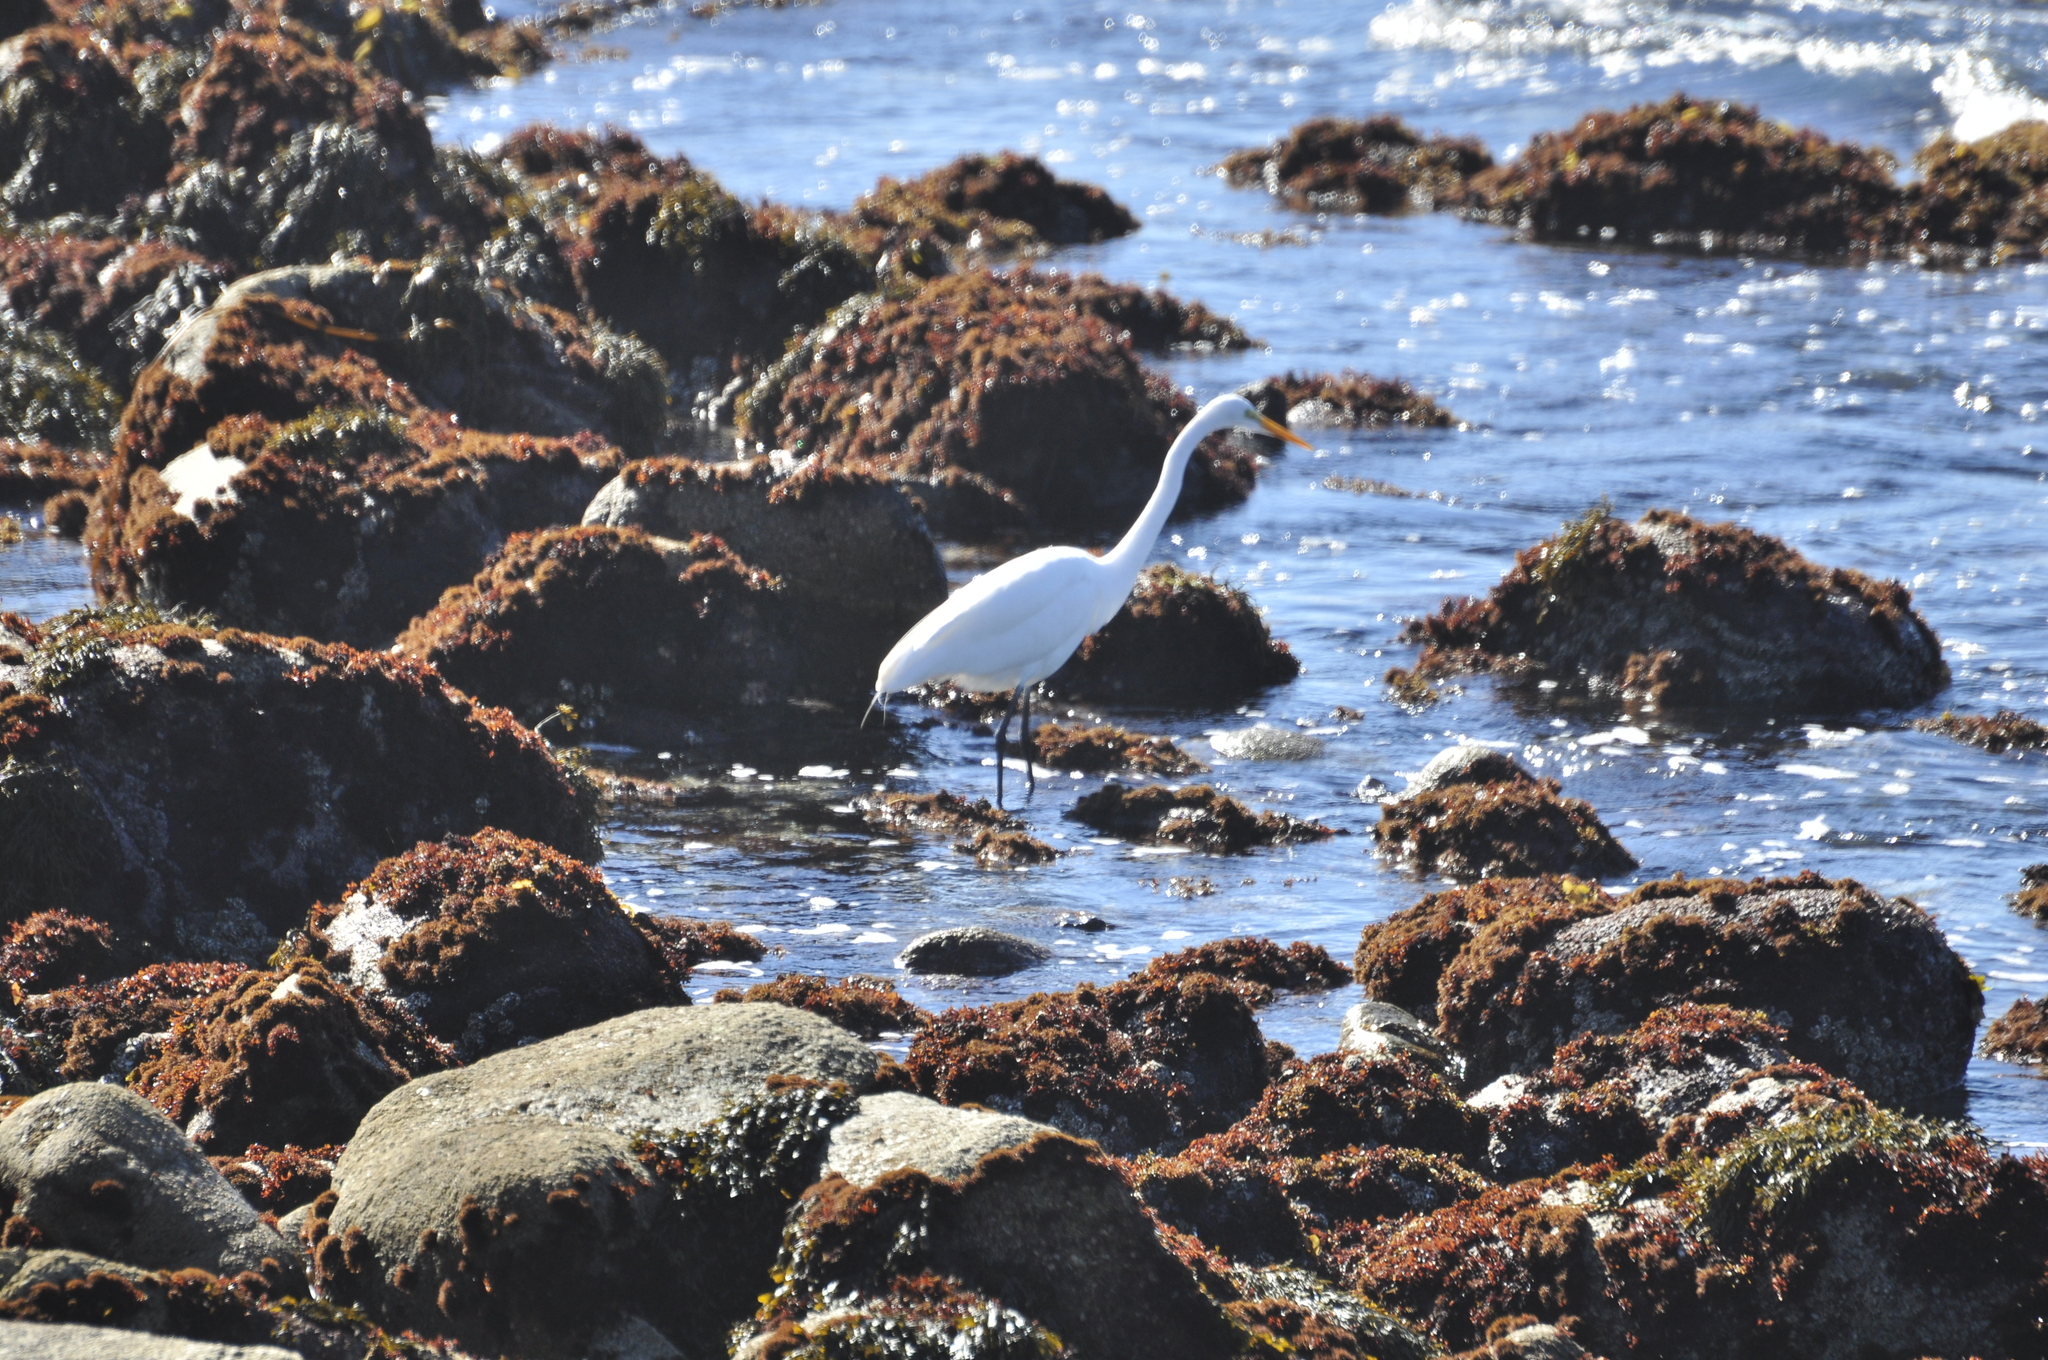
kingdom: Animalia
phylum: Chordata
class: Aves
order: Pelecaniformes
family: Ardeidae
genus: Ardea
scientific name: Ardea alba
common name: Great egret
